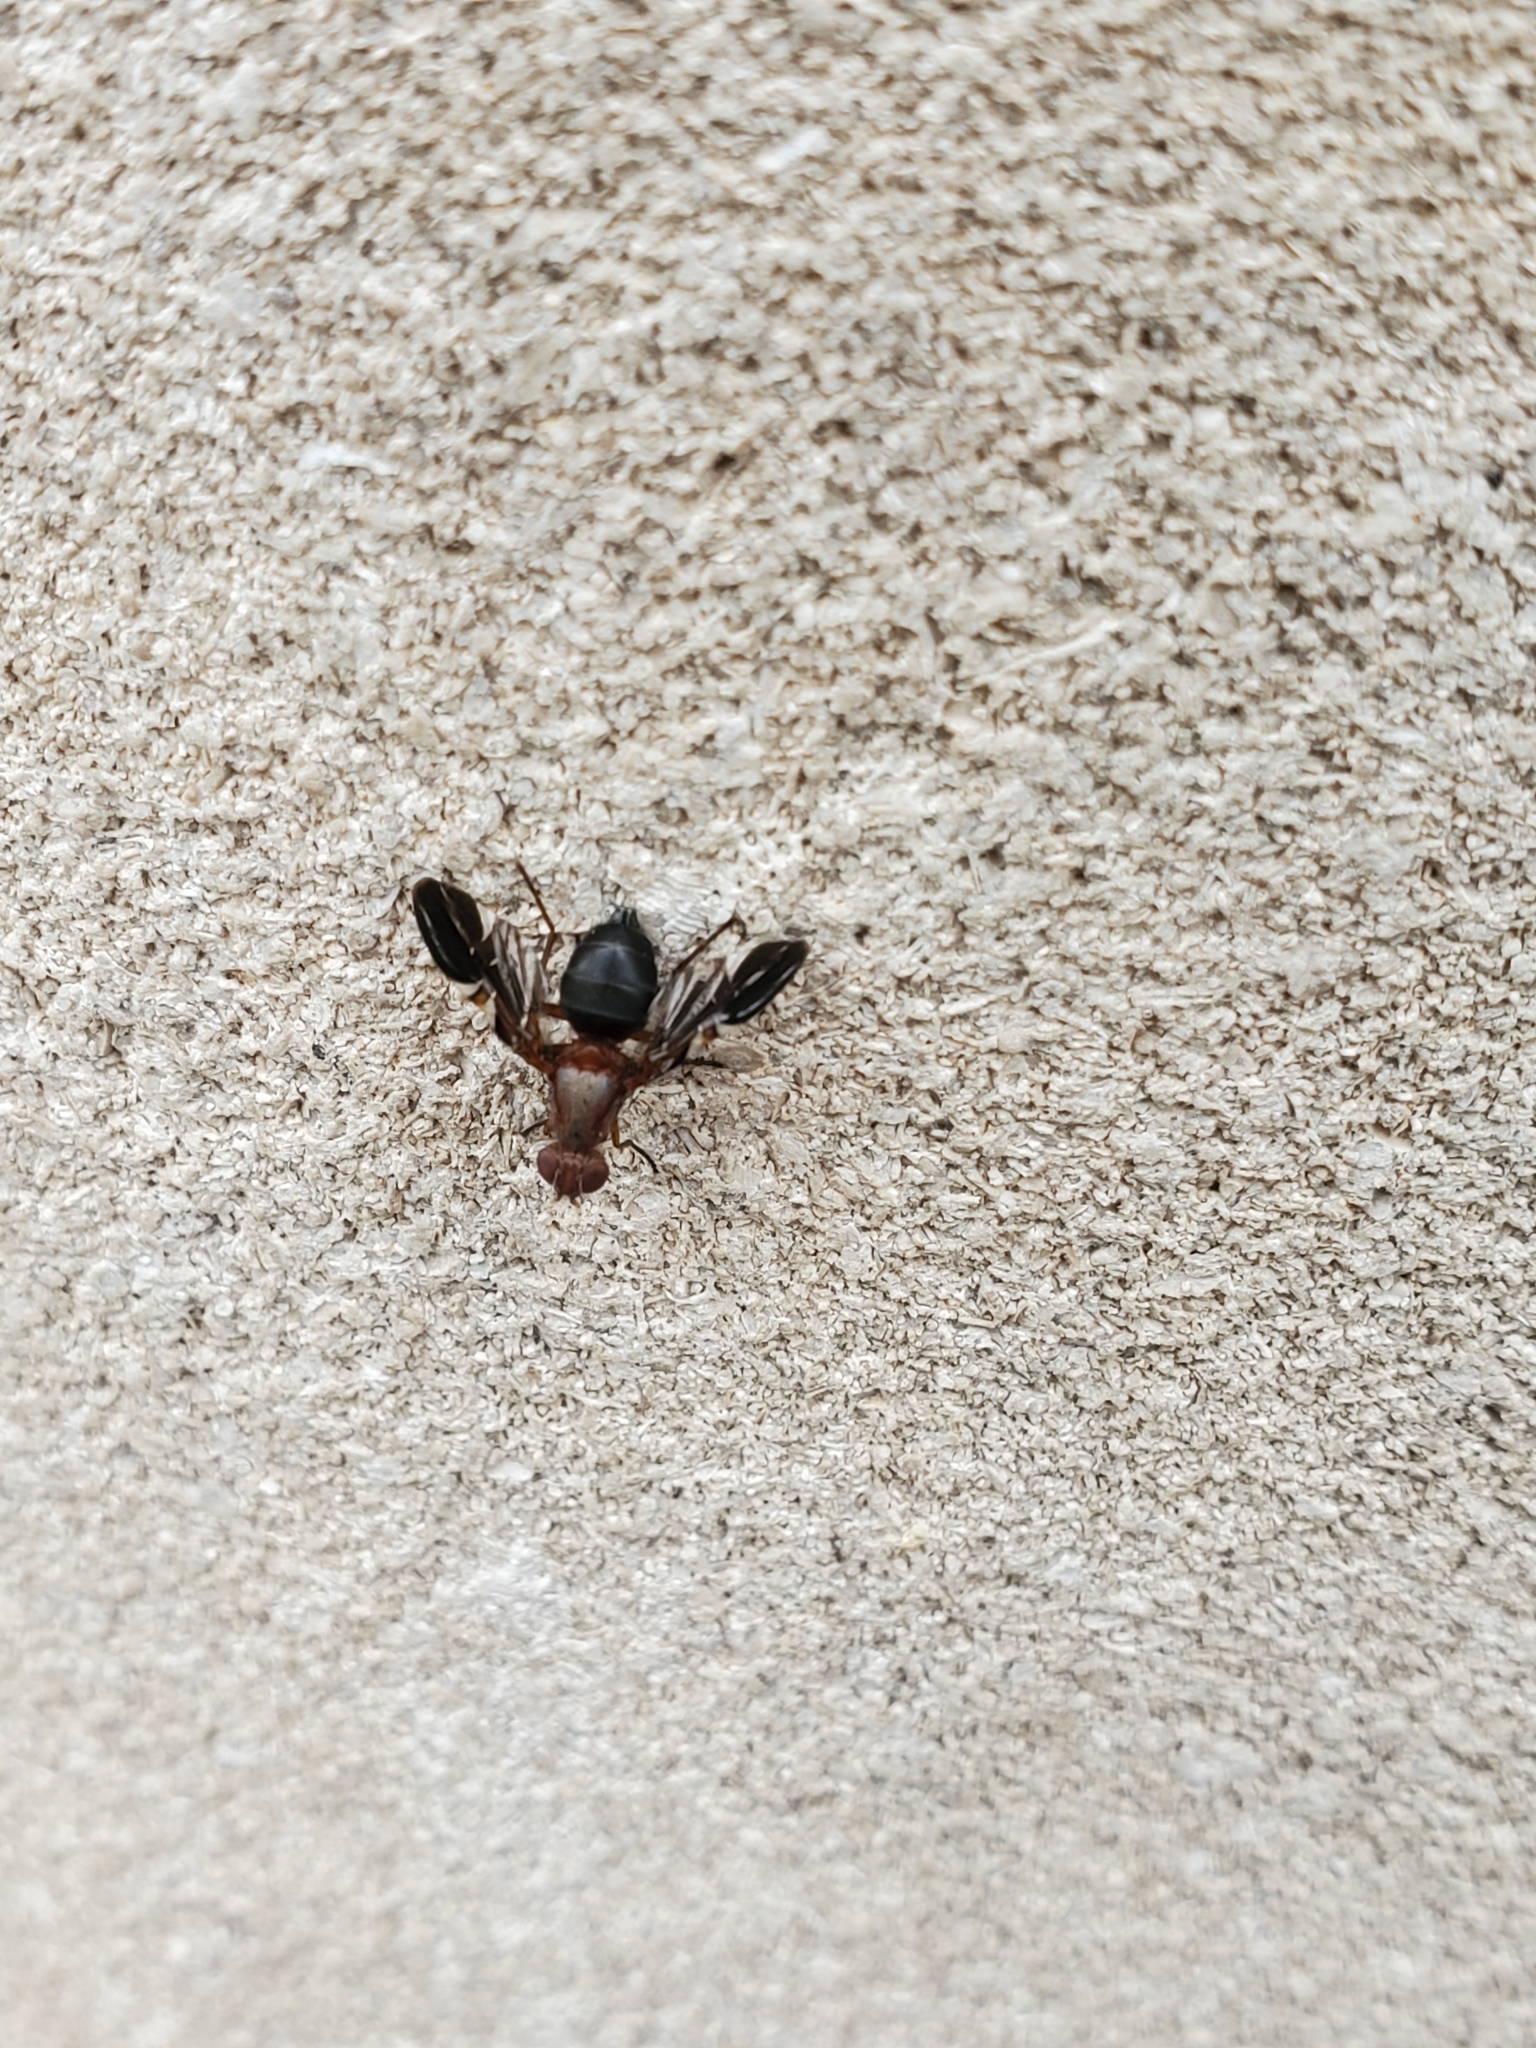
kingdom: Animalia
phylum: Arthropoda
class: Insecta
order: Diptera
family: Ulidiidae
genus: Delphinia
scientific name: Delphinia picta
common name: Common picture-winged fly
